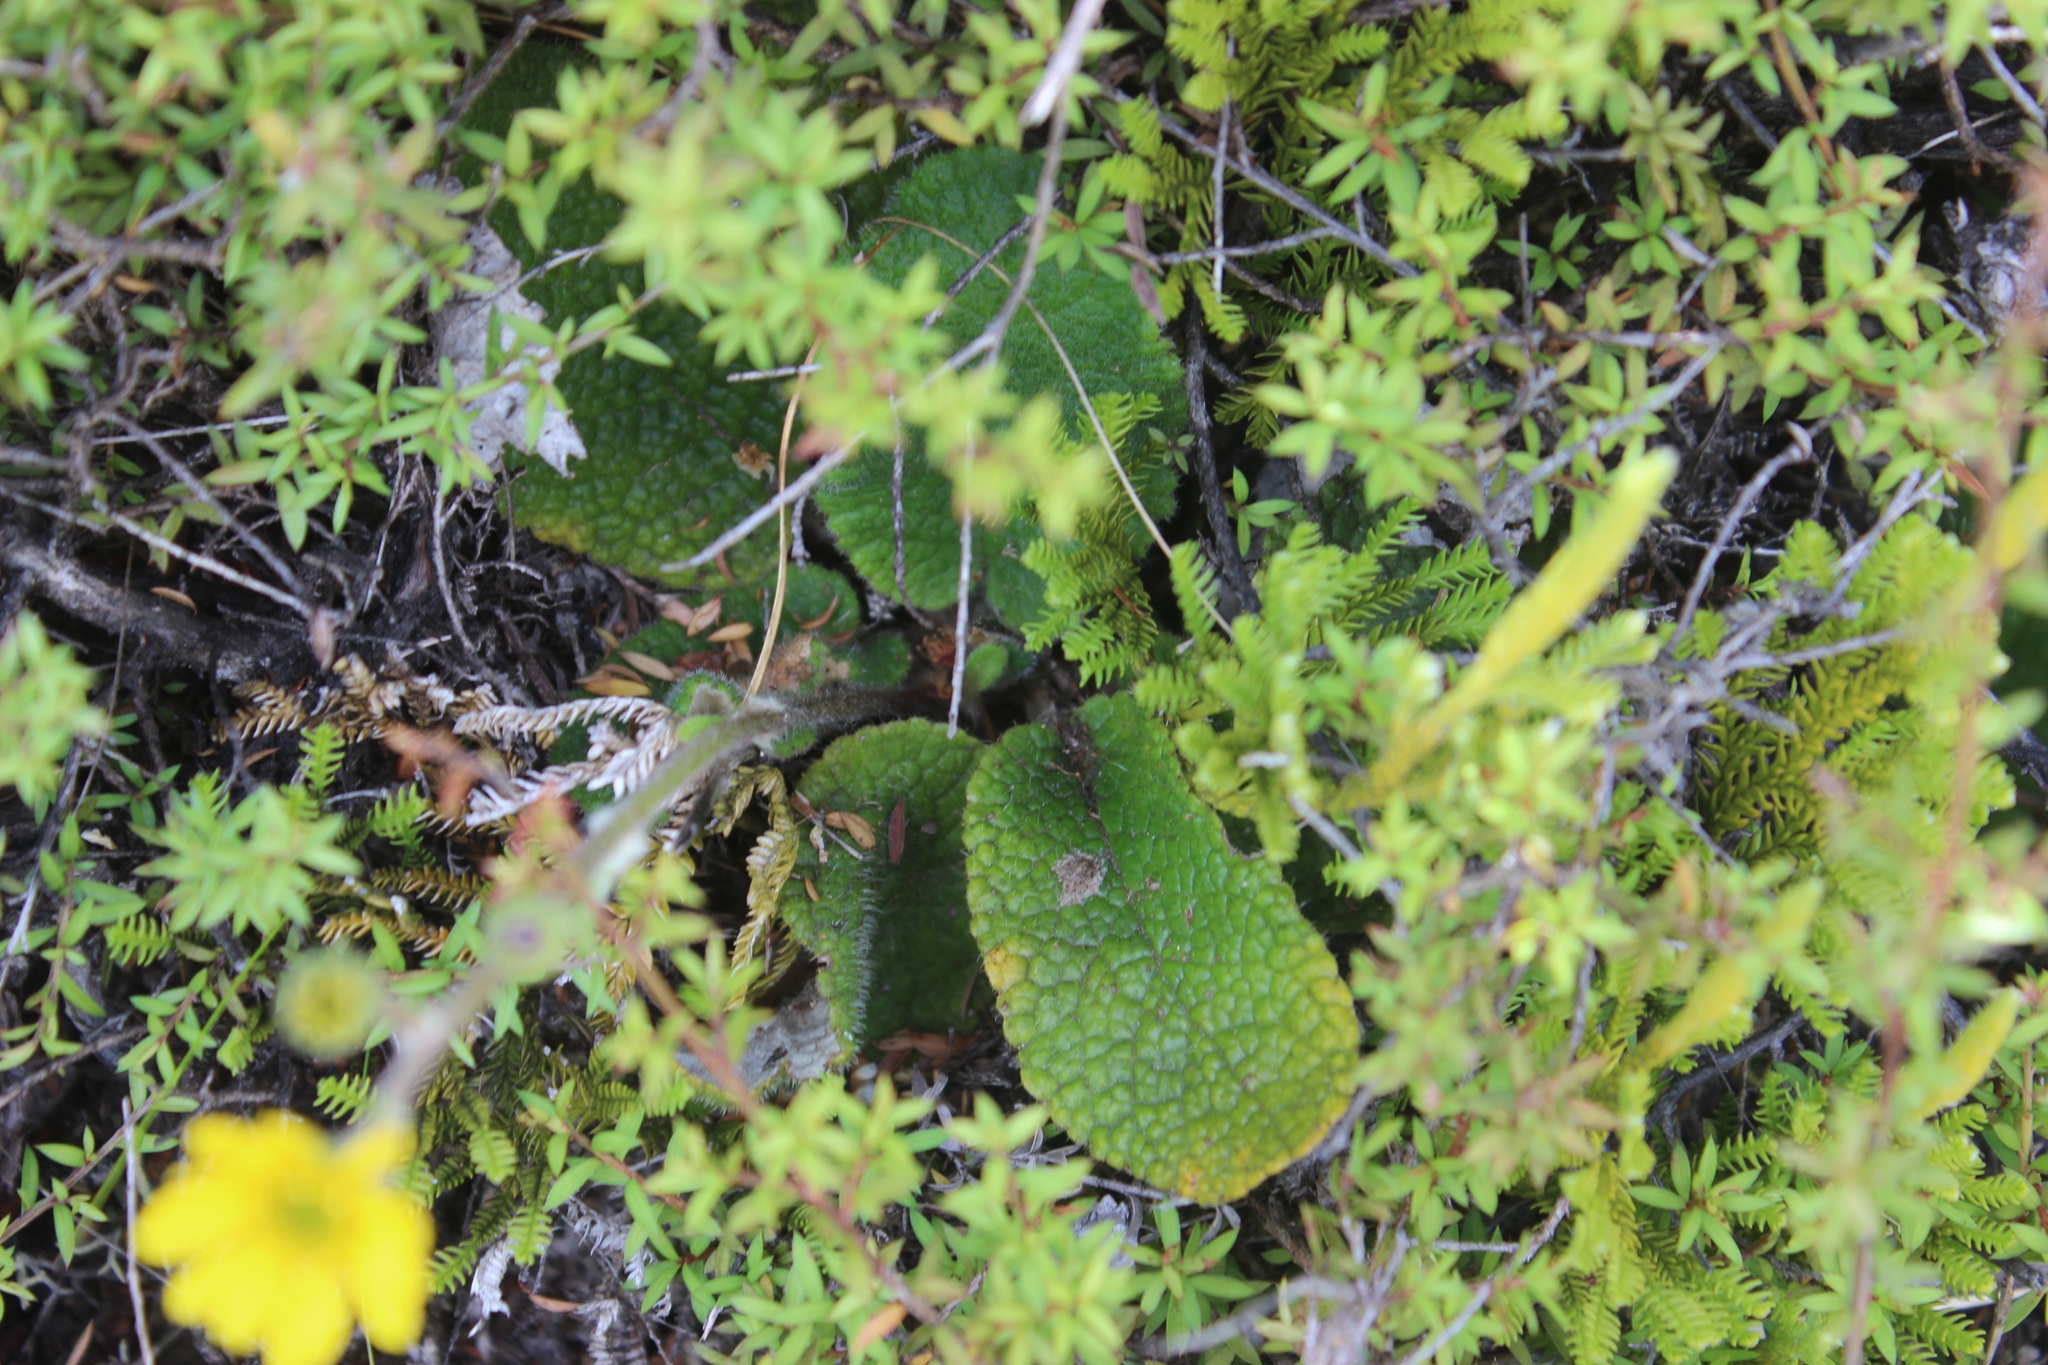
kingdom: Plantae
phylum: Tracheophyta
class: Magnoliopsida
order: Asterales
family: Asteraceae
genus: Brachyglottis
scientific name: Brachyglottis lagopus
